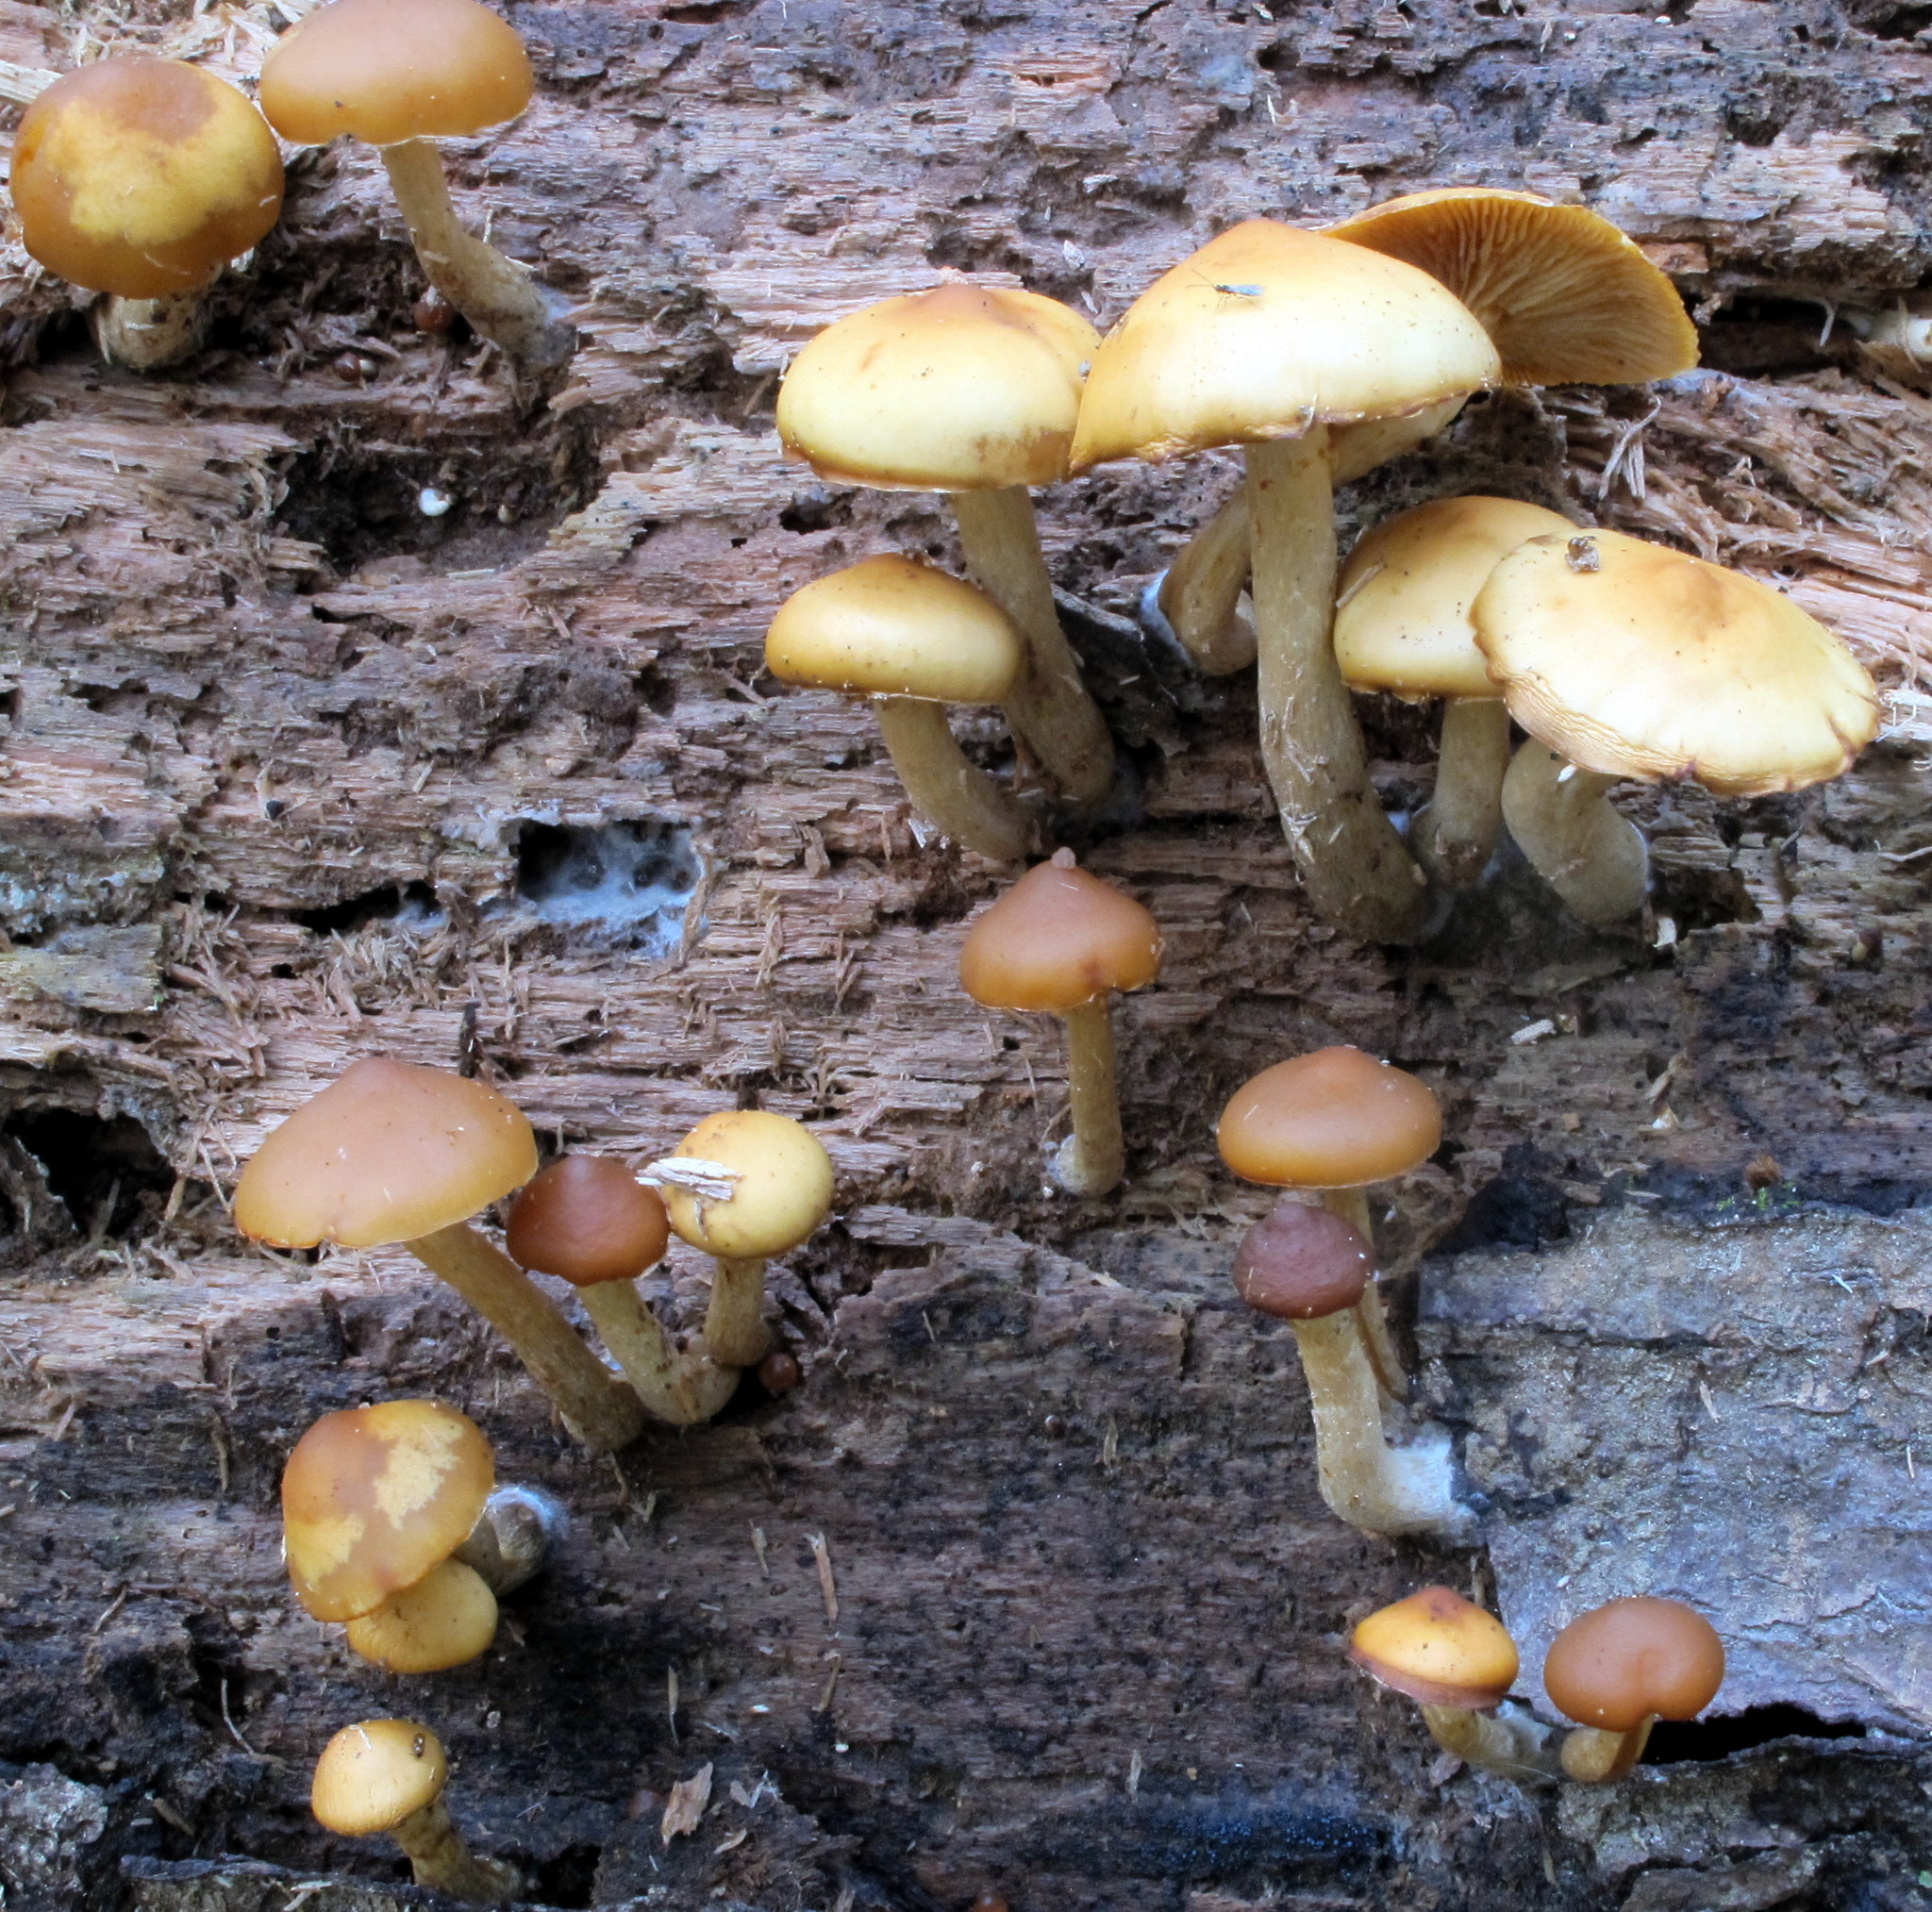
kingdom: Fungi
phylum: Basidiomycota
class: Agaricomycetes
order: Agaricales
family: Hymenogastraceae
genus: Galerina
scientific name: Galerina marginata
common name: Funeral bell
